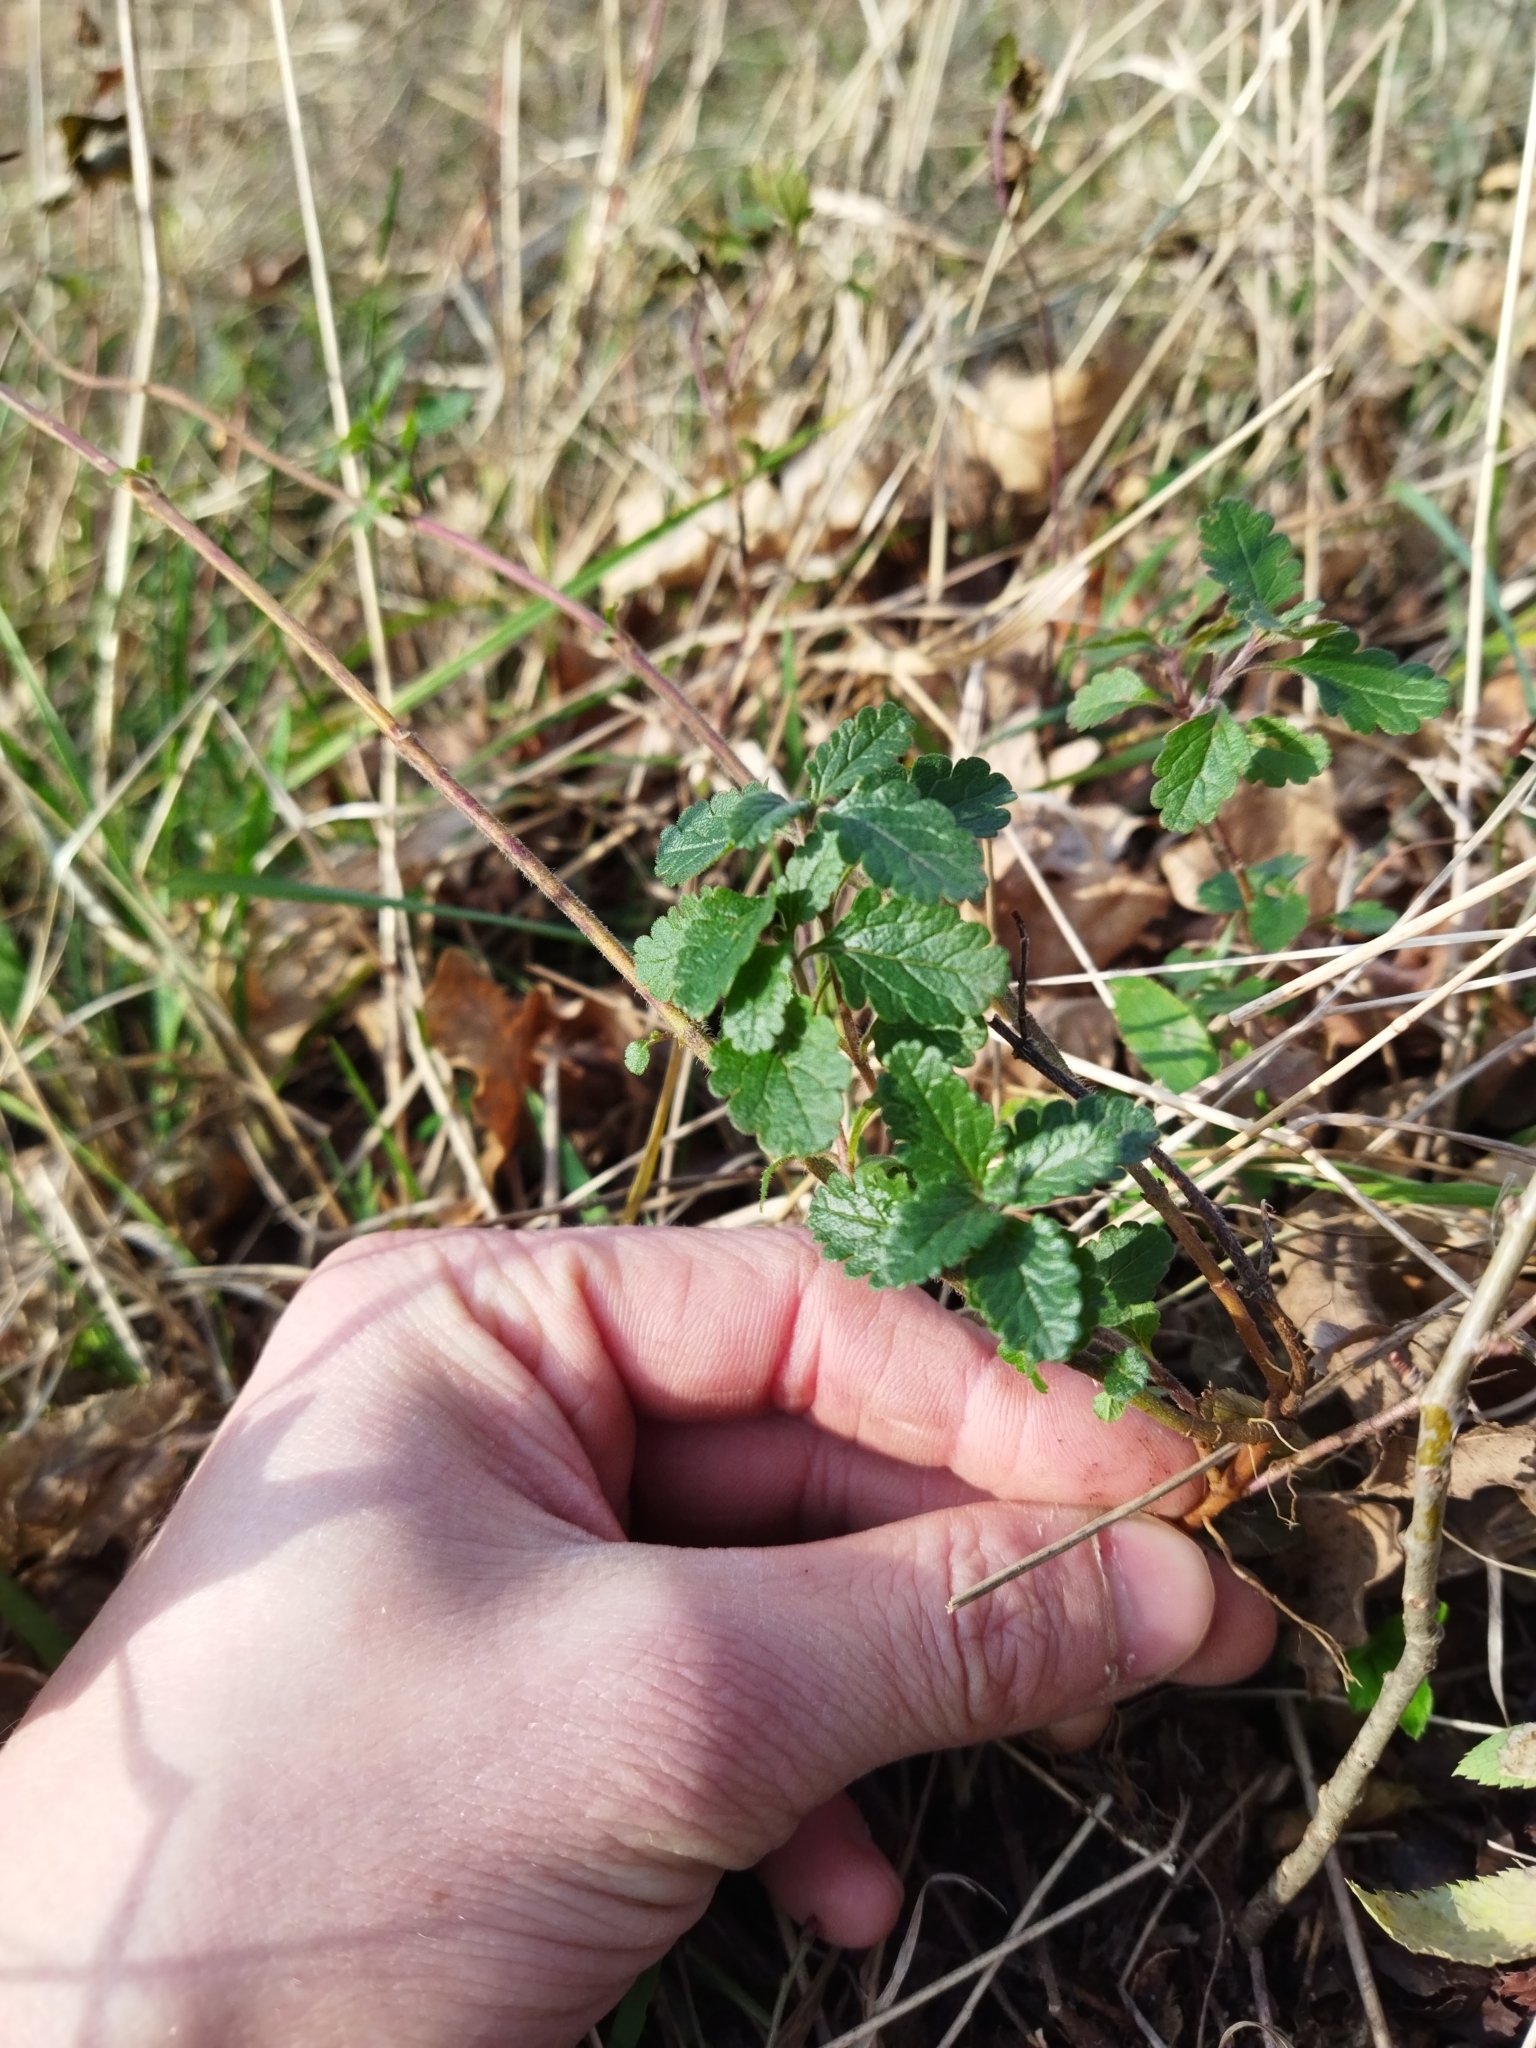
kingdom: Plantae
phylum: Tracheophyta
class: Magnoliopsida
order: Lamiales
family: Lamiaceae
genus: Teucrium
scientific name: Teucrium chamaedrys
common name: Wall germander
